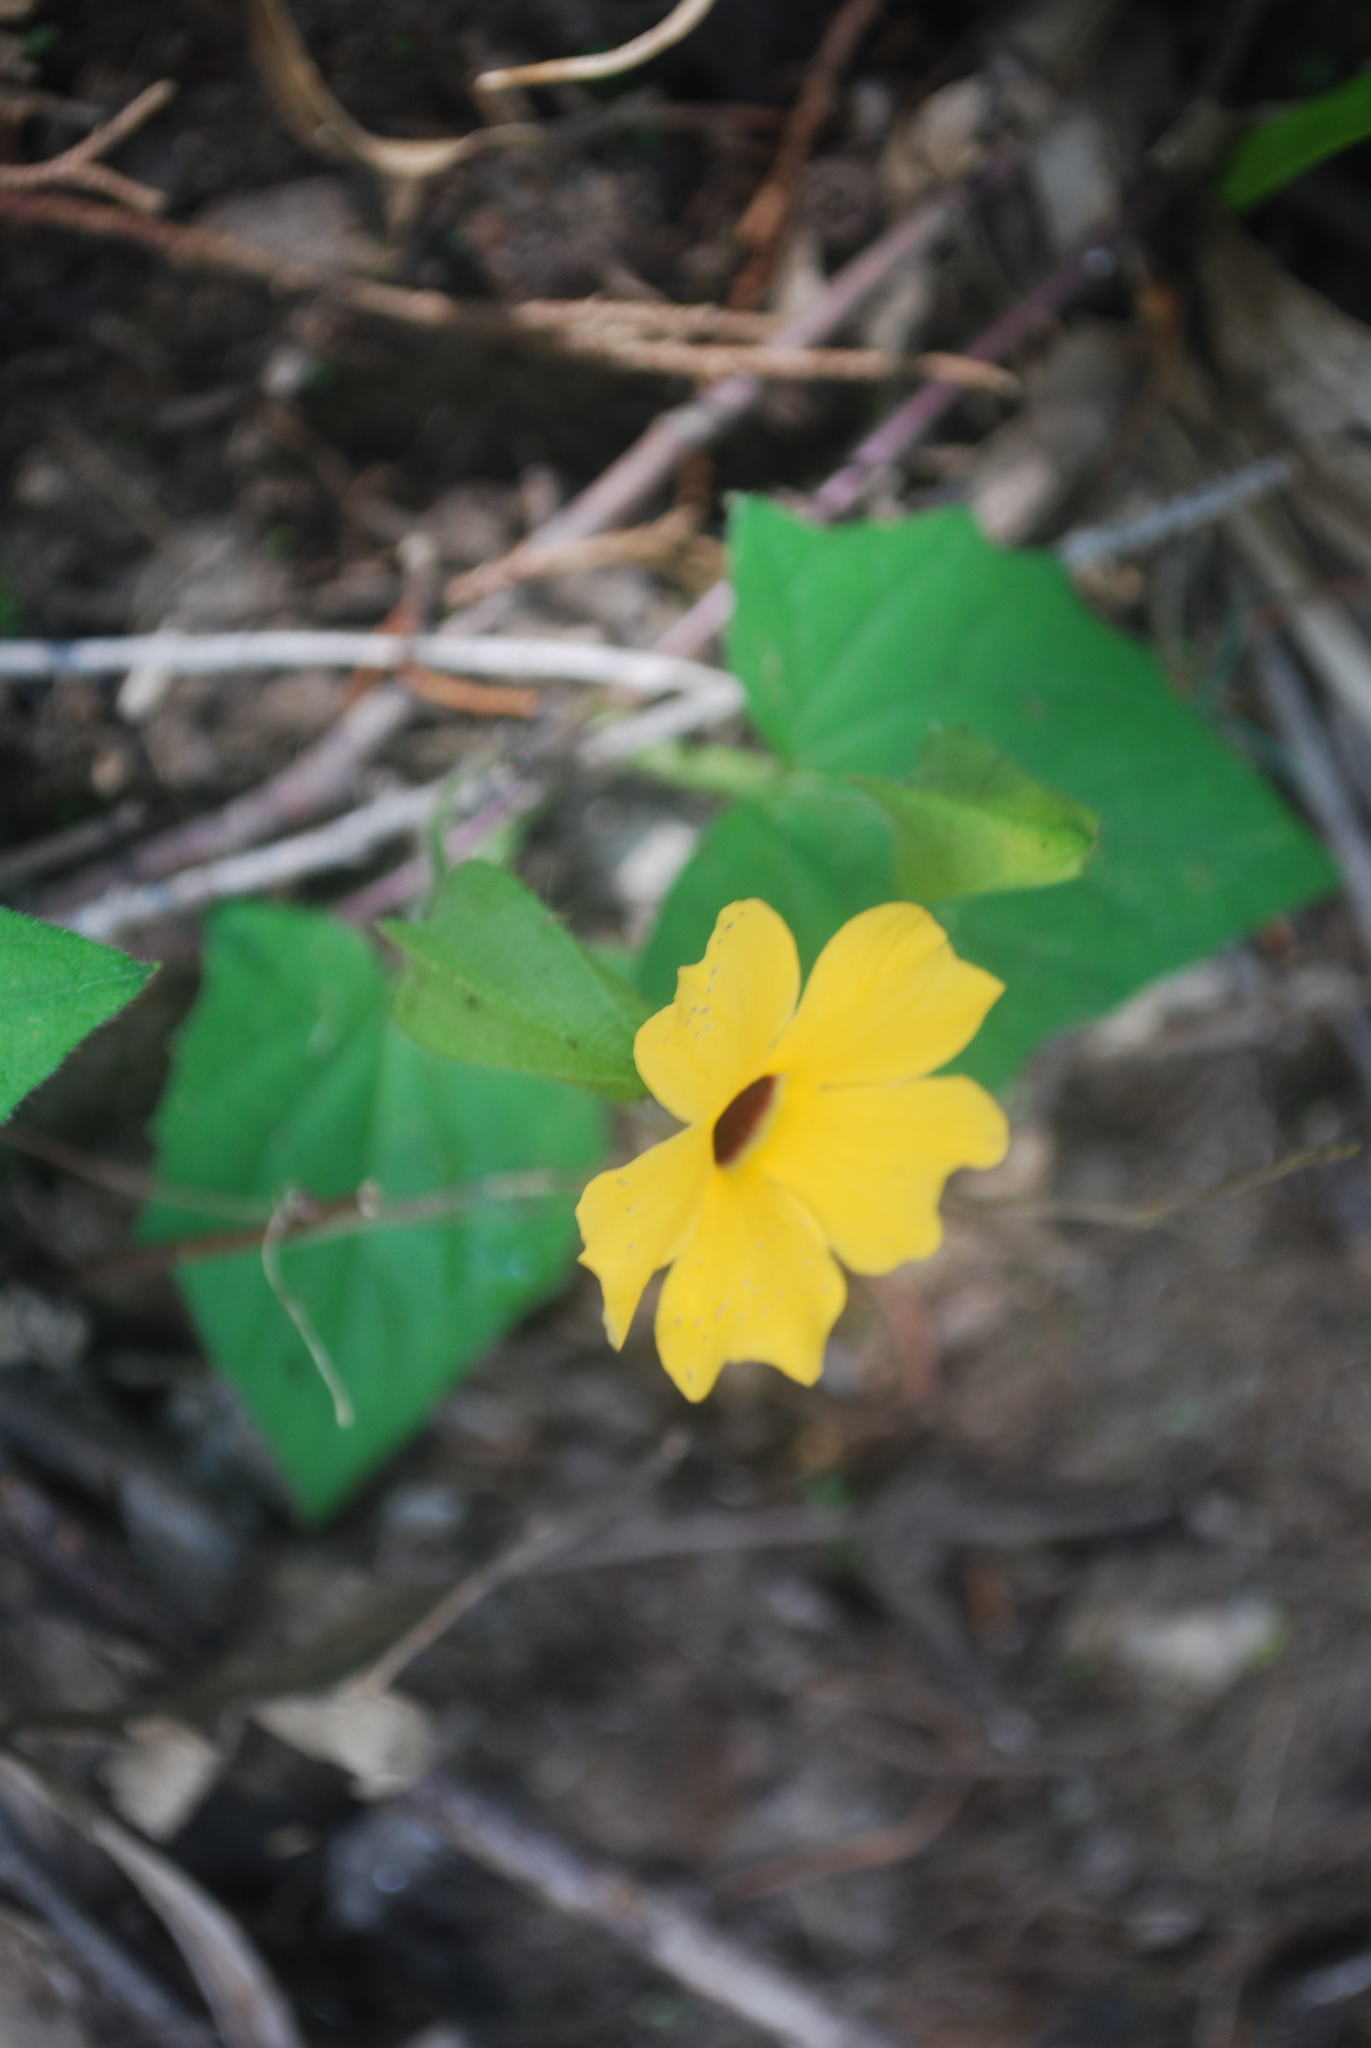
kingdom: Plantae
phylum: Tracheophyta
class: Magnoliopsida
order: Lamiales
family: Acanthaceae
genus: Thunbergia
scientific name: Thunbergia alata
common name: Blackeyed susan vine
